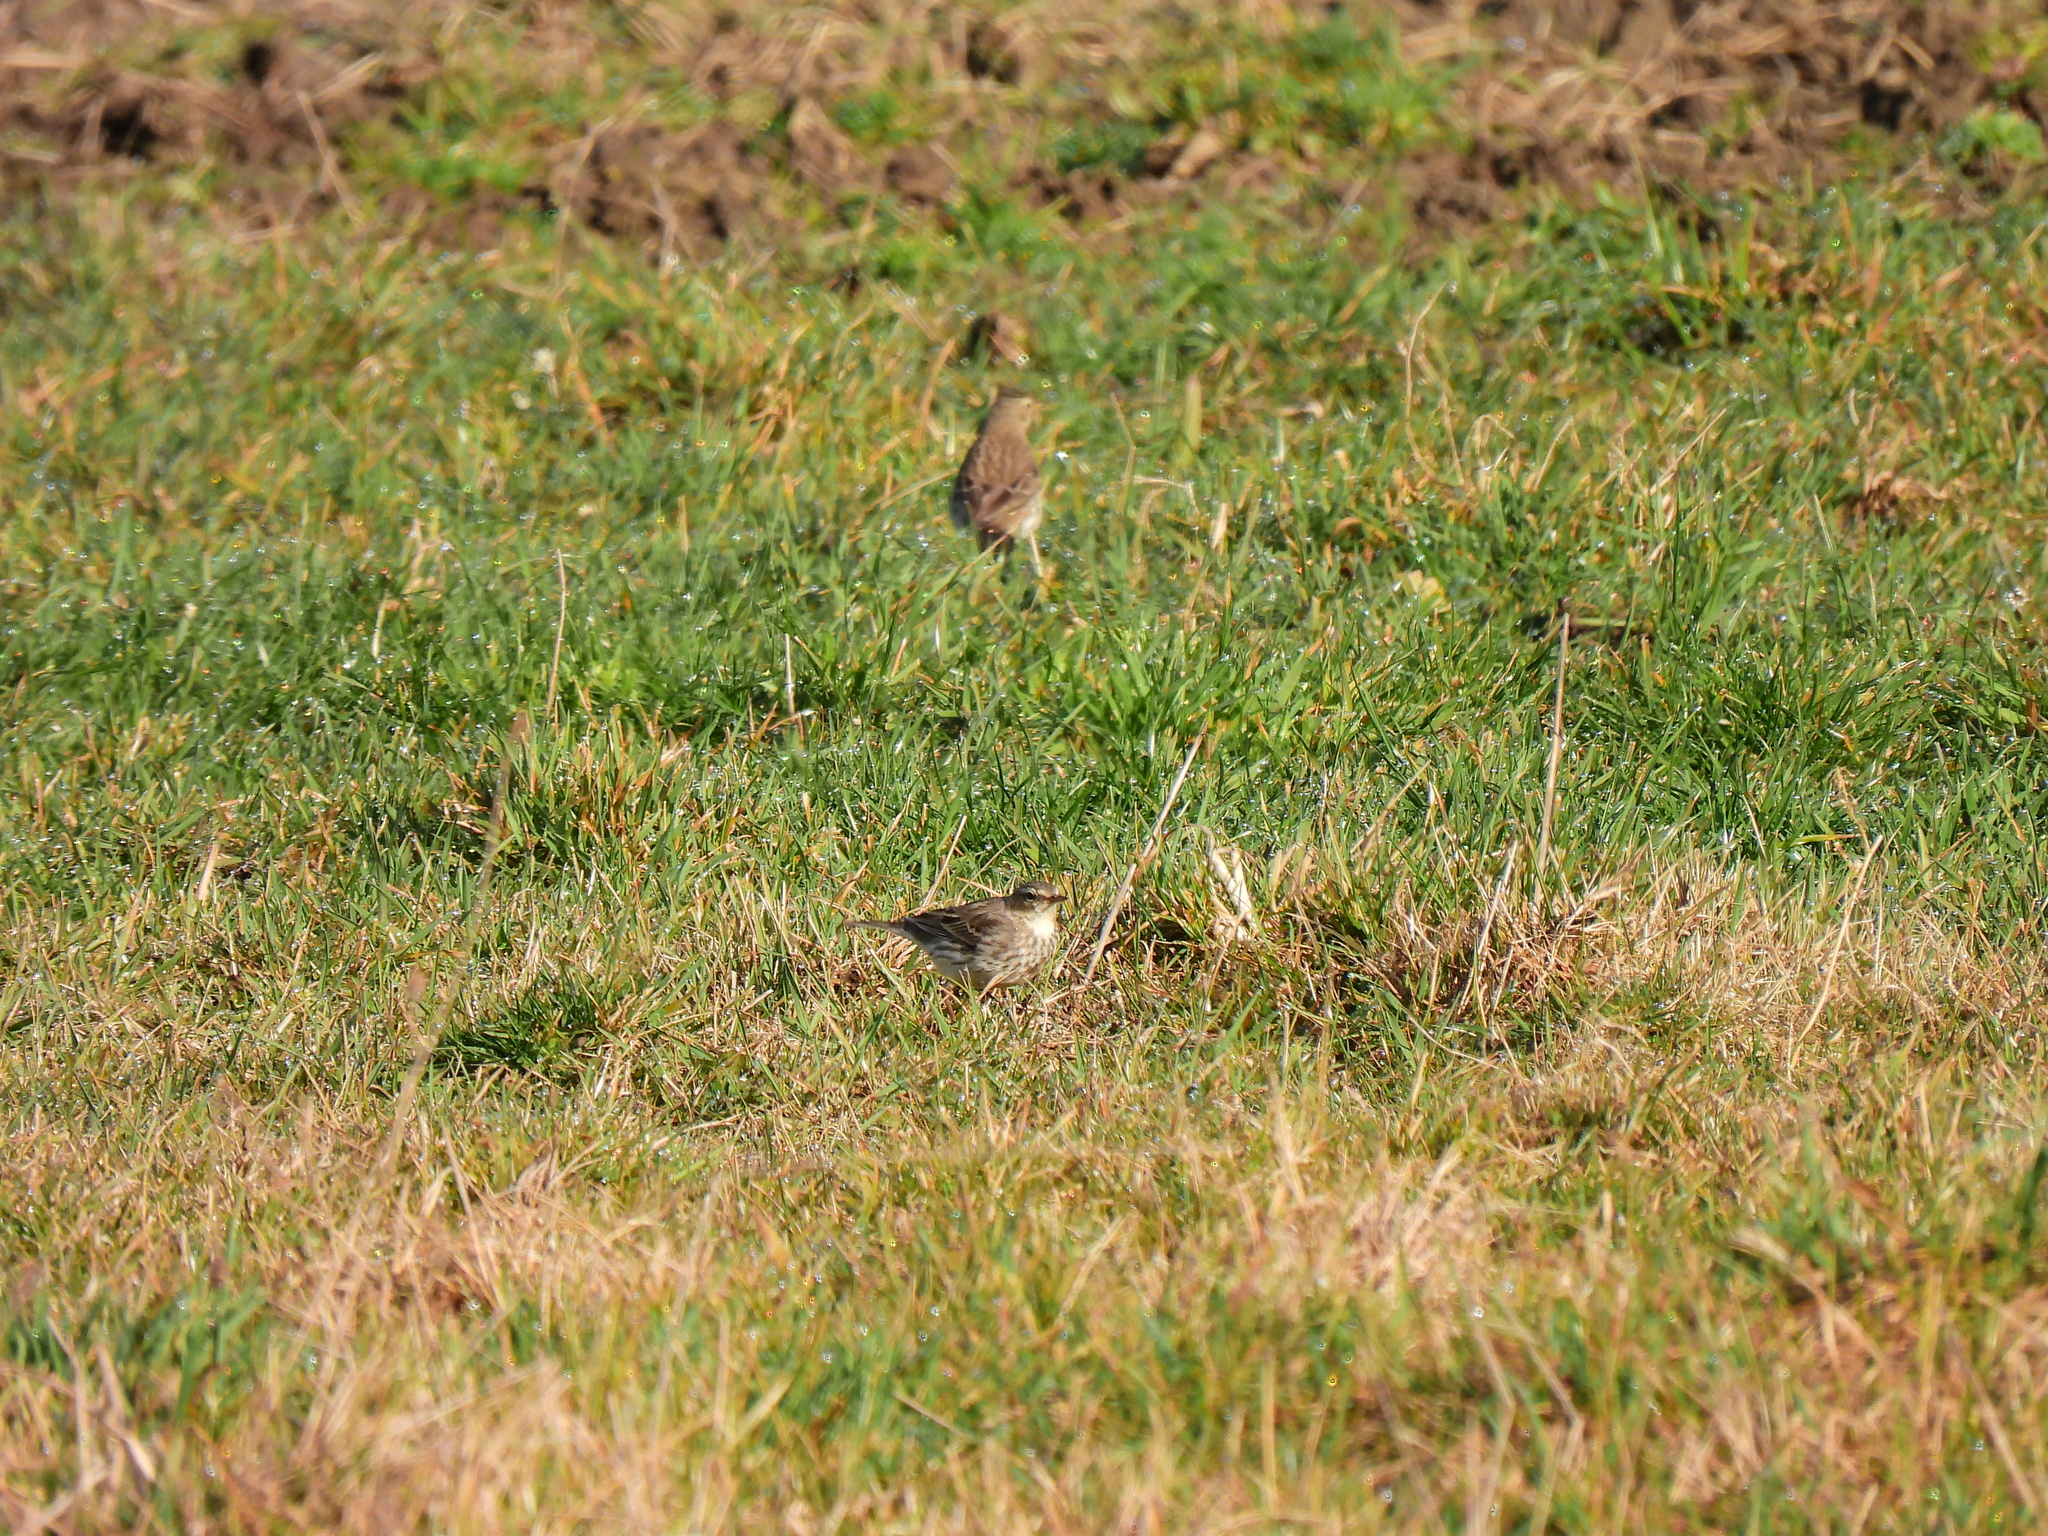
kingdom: Animalia
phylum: Chordata
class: Aves
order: Passeriformes
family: Motacillidae
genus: Anthus
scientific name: Anthus spinoletta
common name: Water pipit
